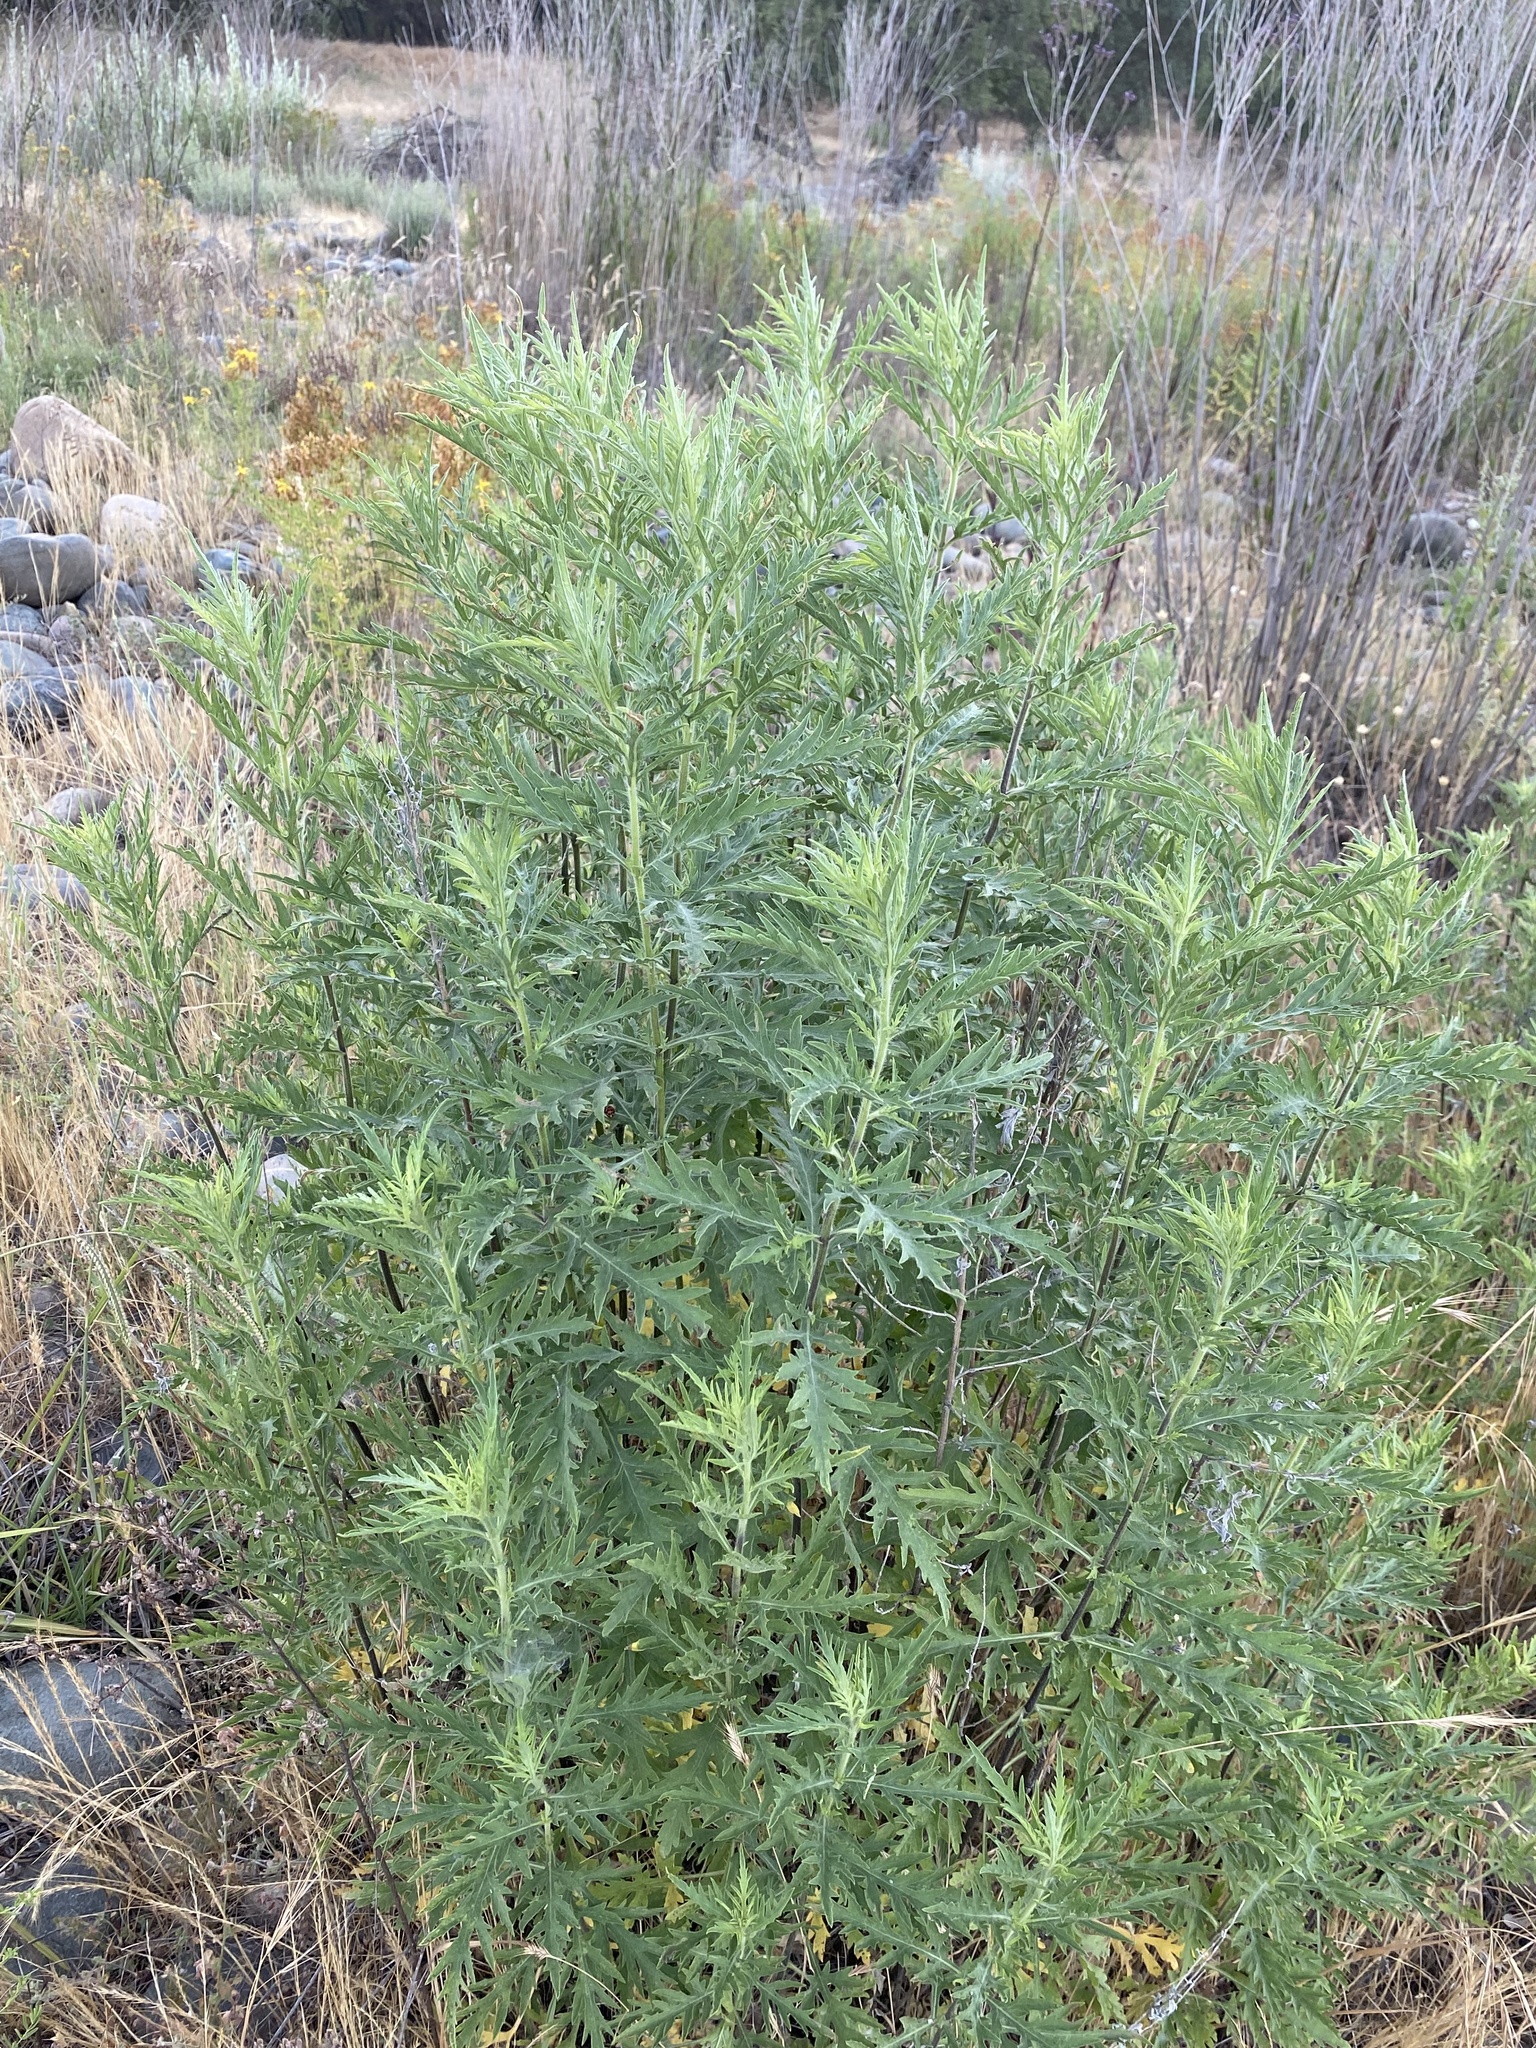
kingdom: Plantae
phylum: Tracheophyta
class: Magnoliopsida
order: Asterales
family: Asteraceae
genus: Artemisia
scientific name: Artemisia douglasiana
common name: Northwest mugwort
